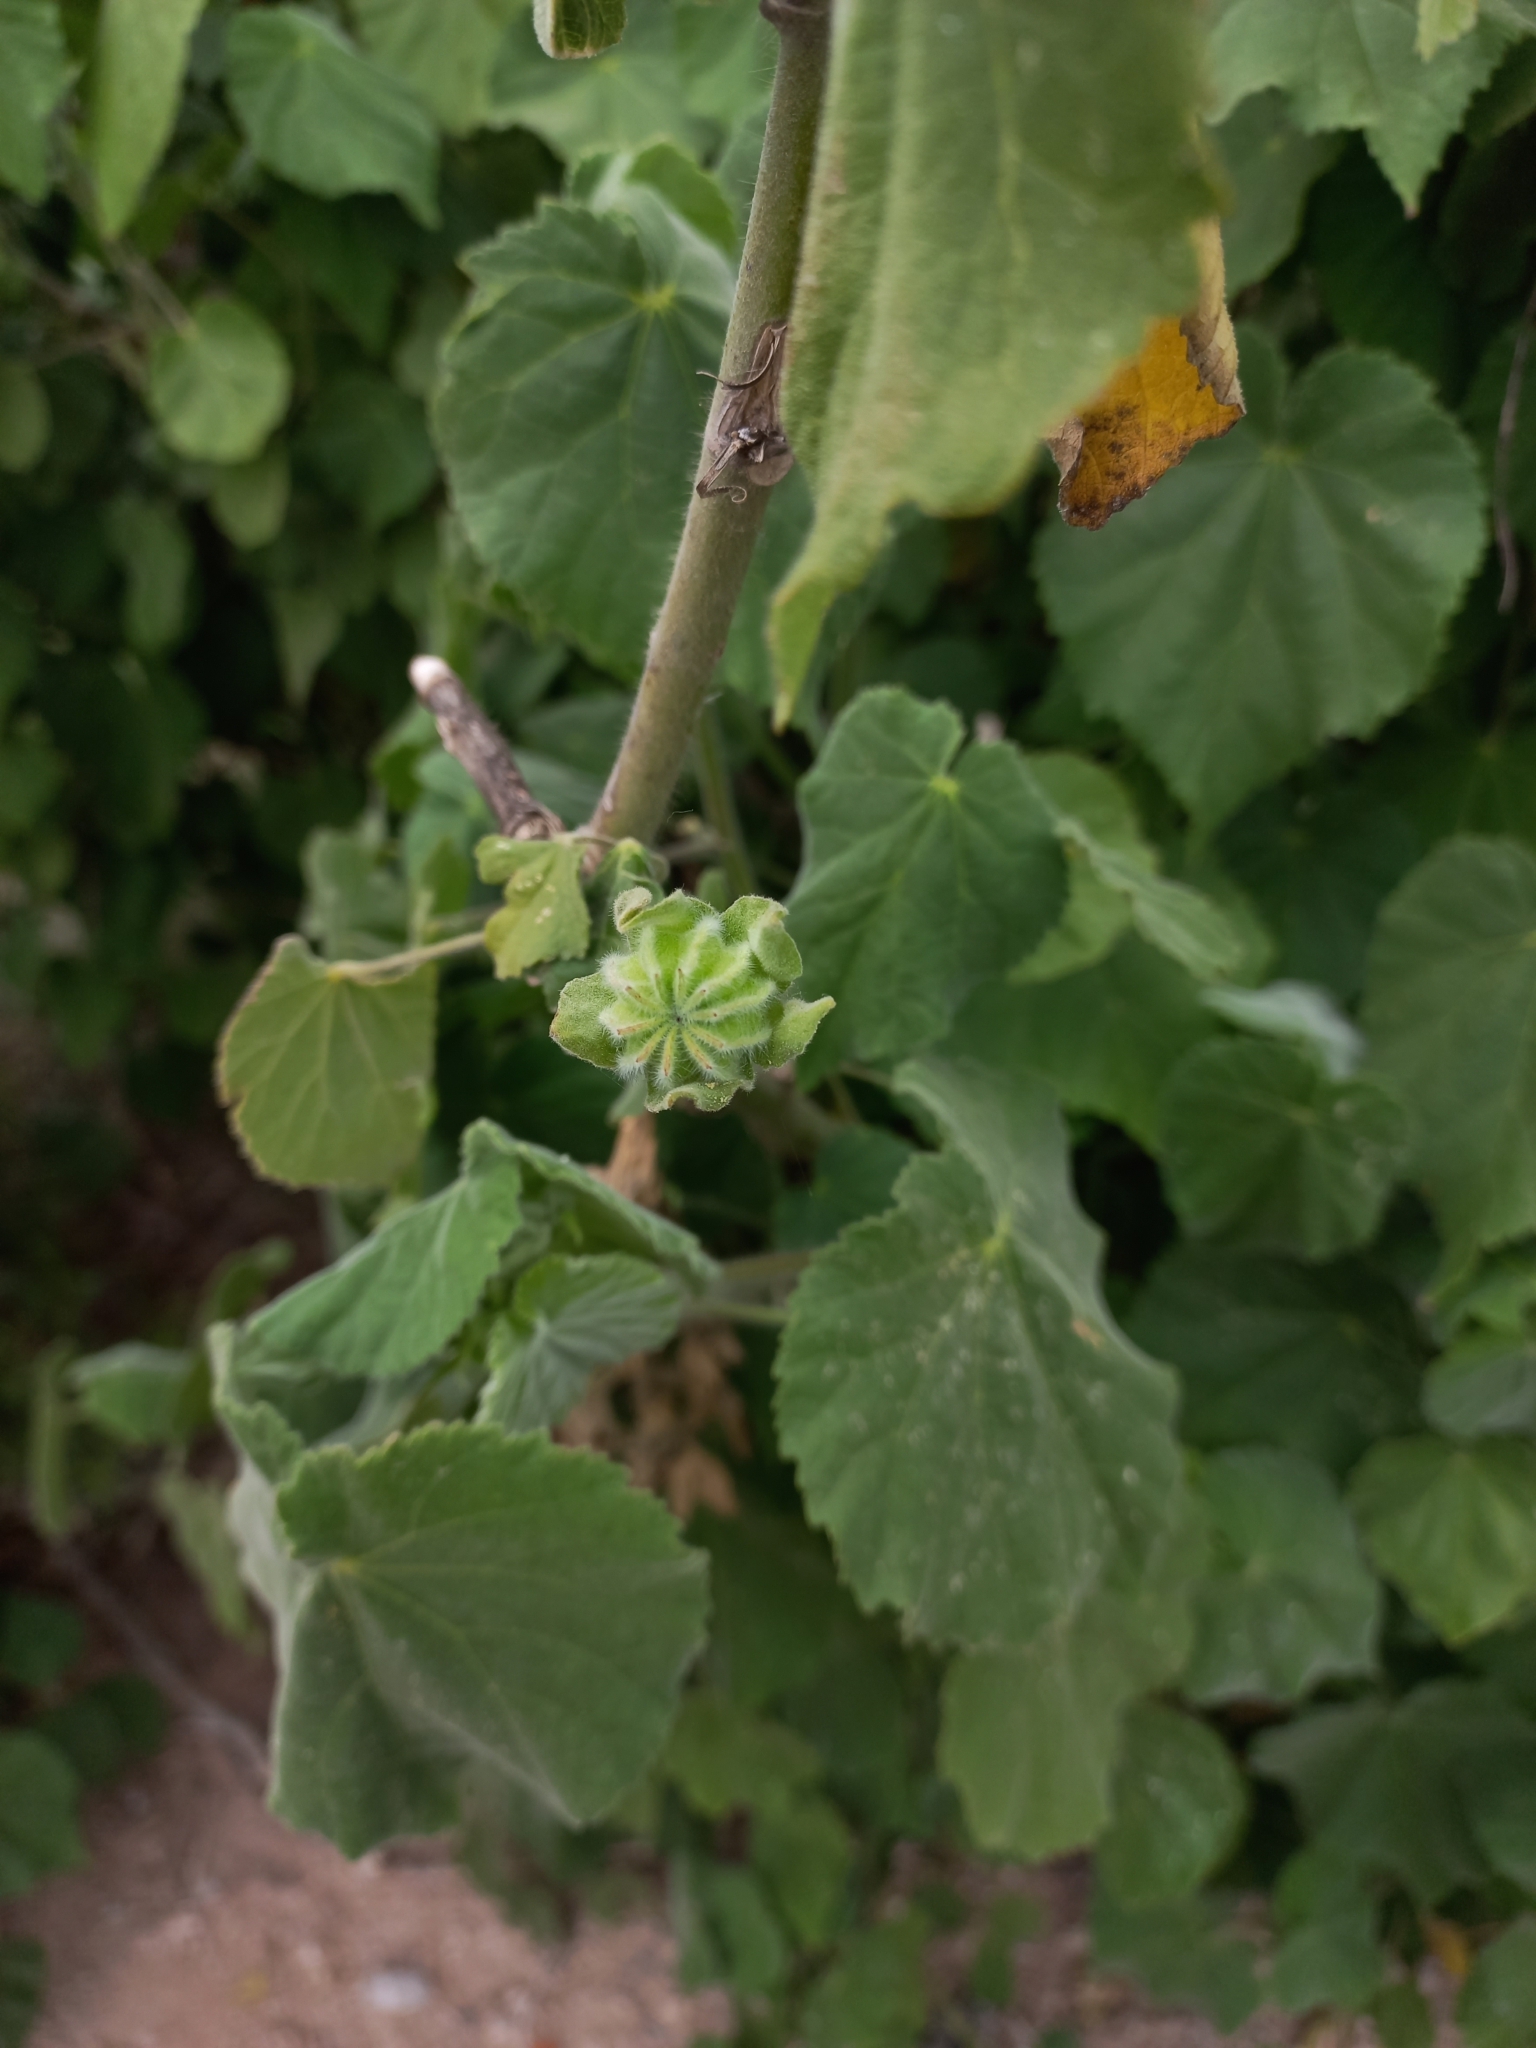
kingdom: Plantae
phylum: Tracheophyta
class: Magnoliopsida
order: Malvales
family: Malvaceae
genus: Abutilon
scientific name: Abutilon grandifolium
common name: Hairy abutilon
